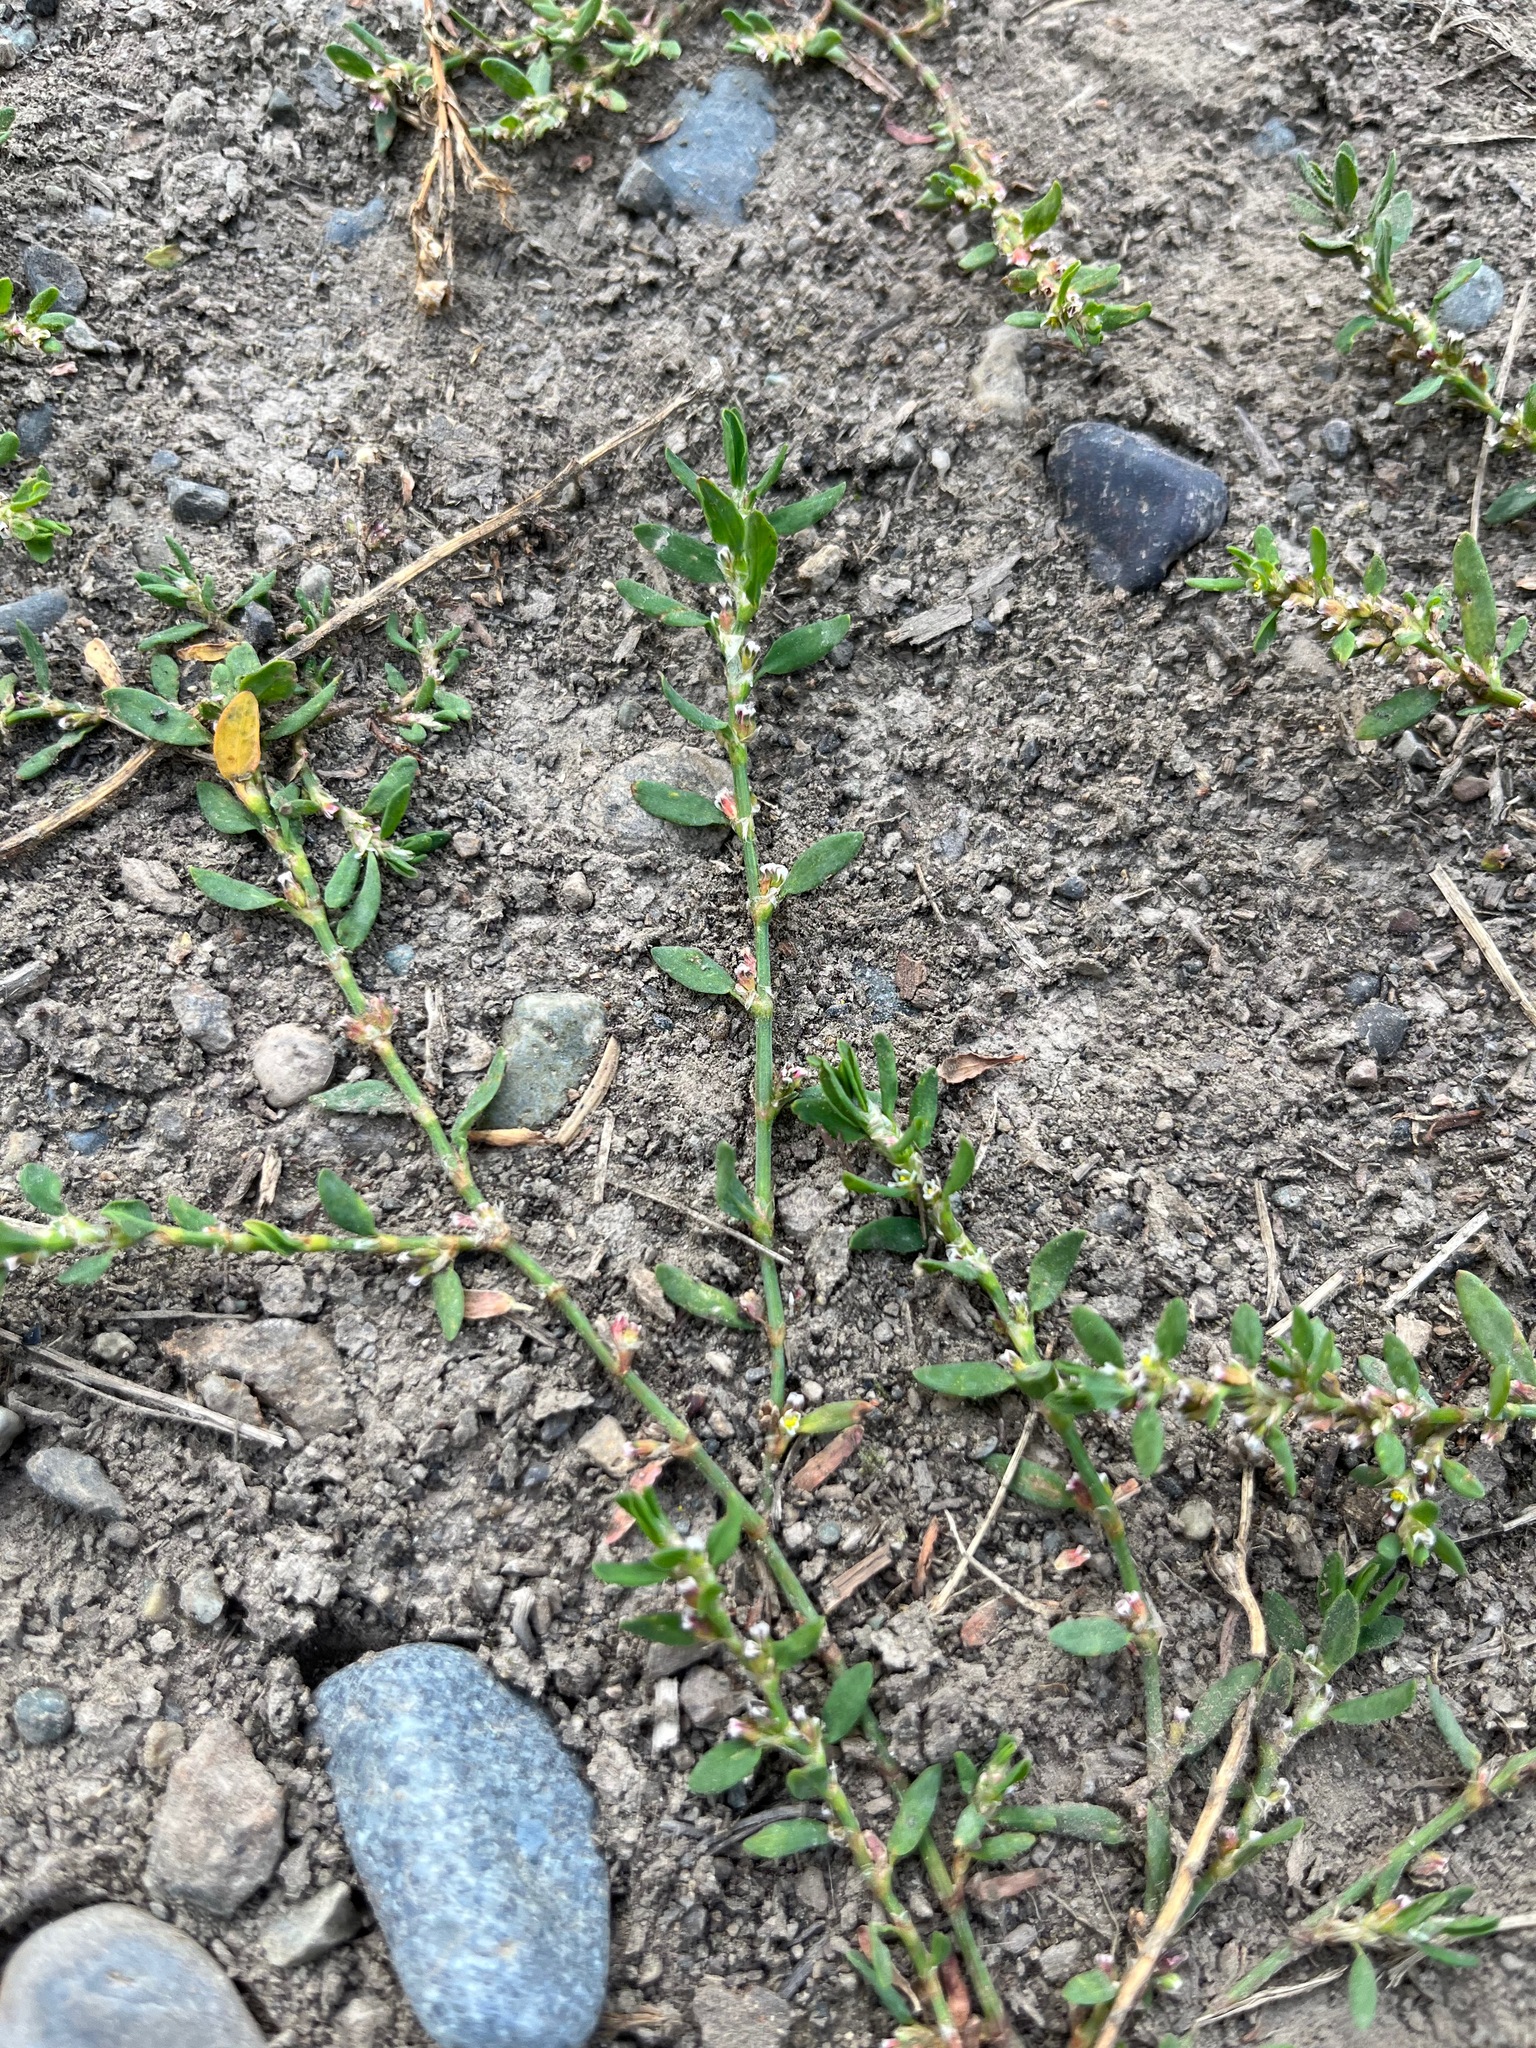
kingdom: Plantae
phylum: Tracheophyta
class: Magnoliopsida
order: Caryophyllales
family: Polygonaceae
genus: Polygonum
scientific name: Polygonum aviculare
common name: Prostrate knotweed
